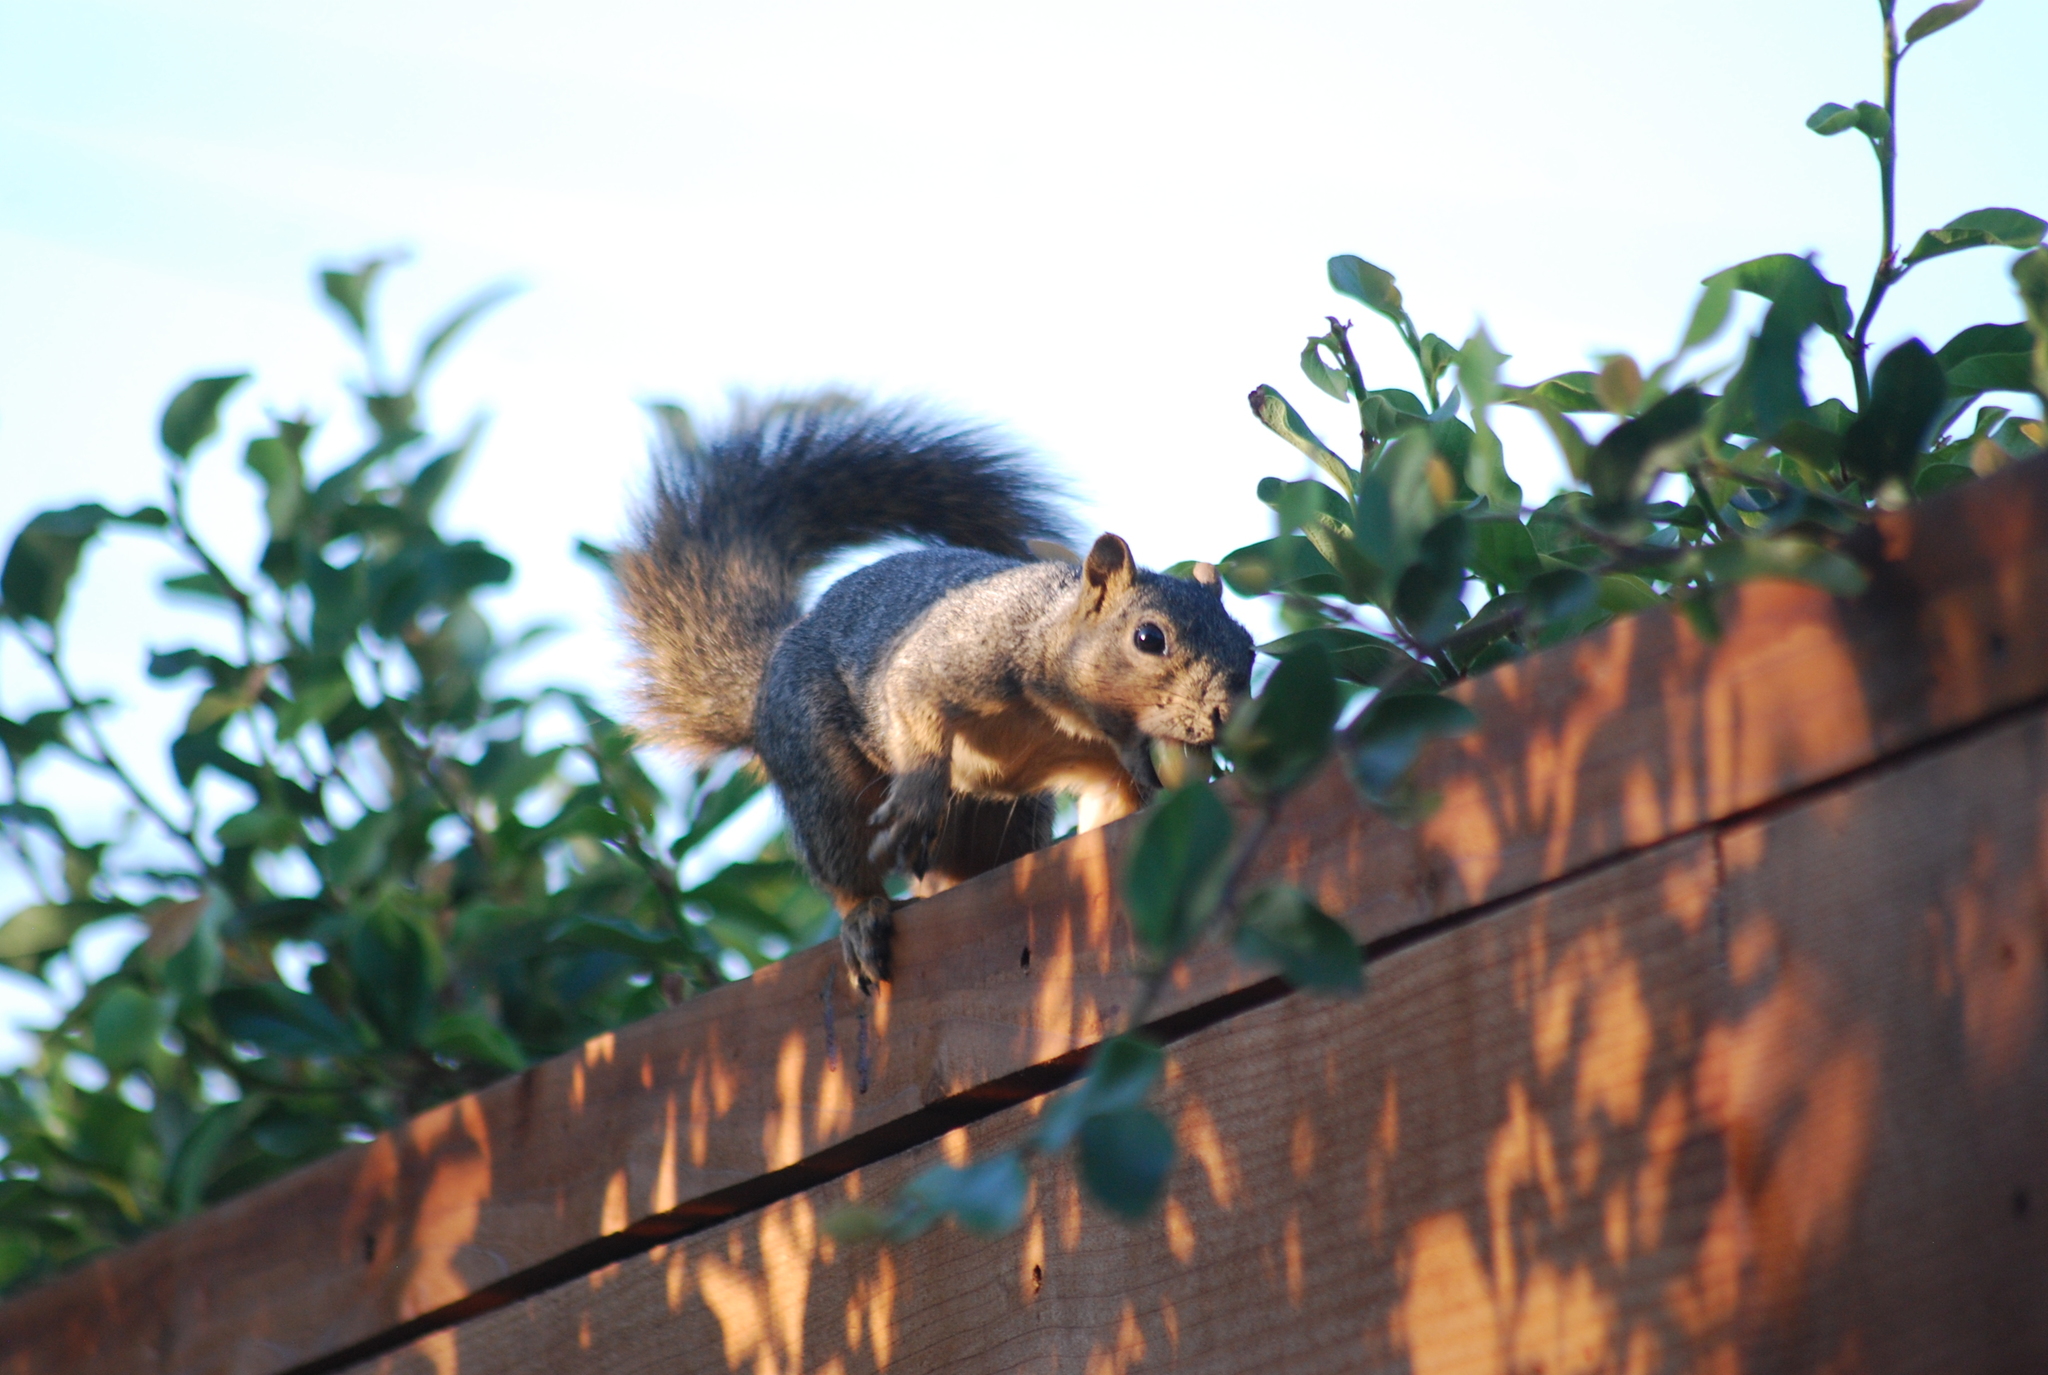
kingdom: Animalia
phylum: Chordata
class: Mammalia
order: Rodentia
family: Sciuridae
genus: Sciurus
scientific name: Sciurus niger
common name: Fox squirrel
